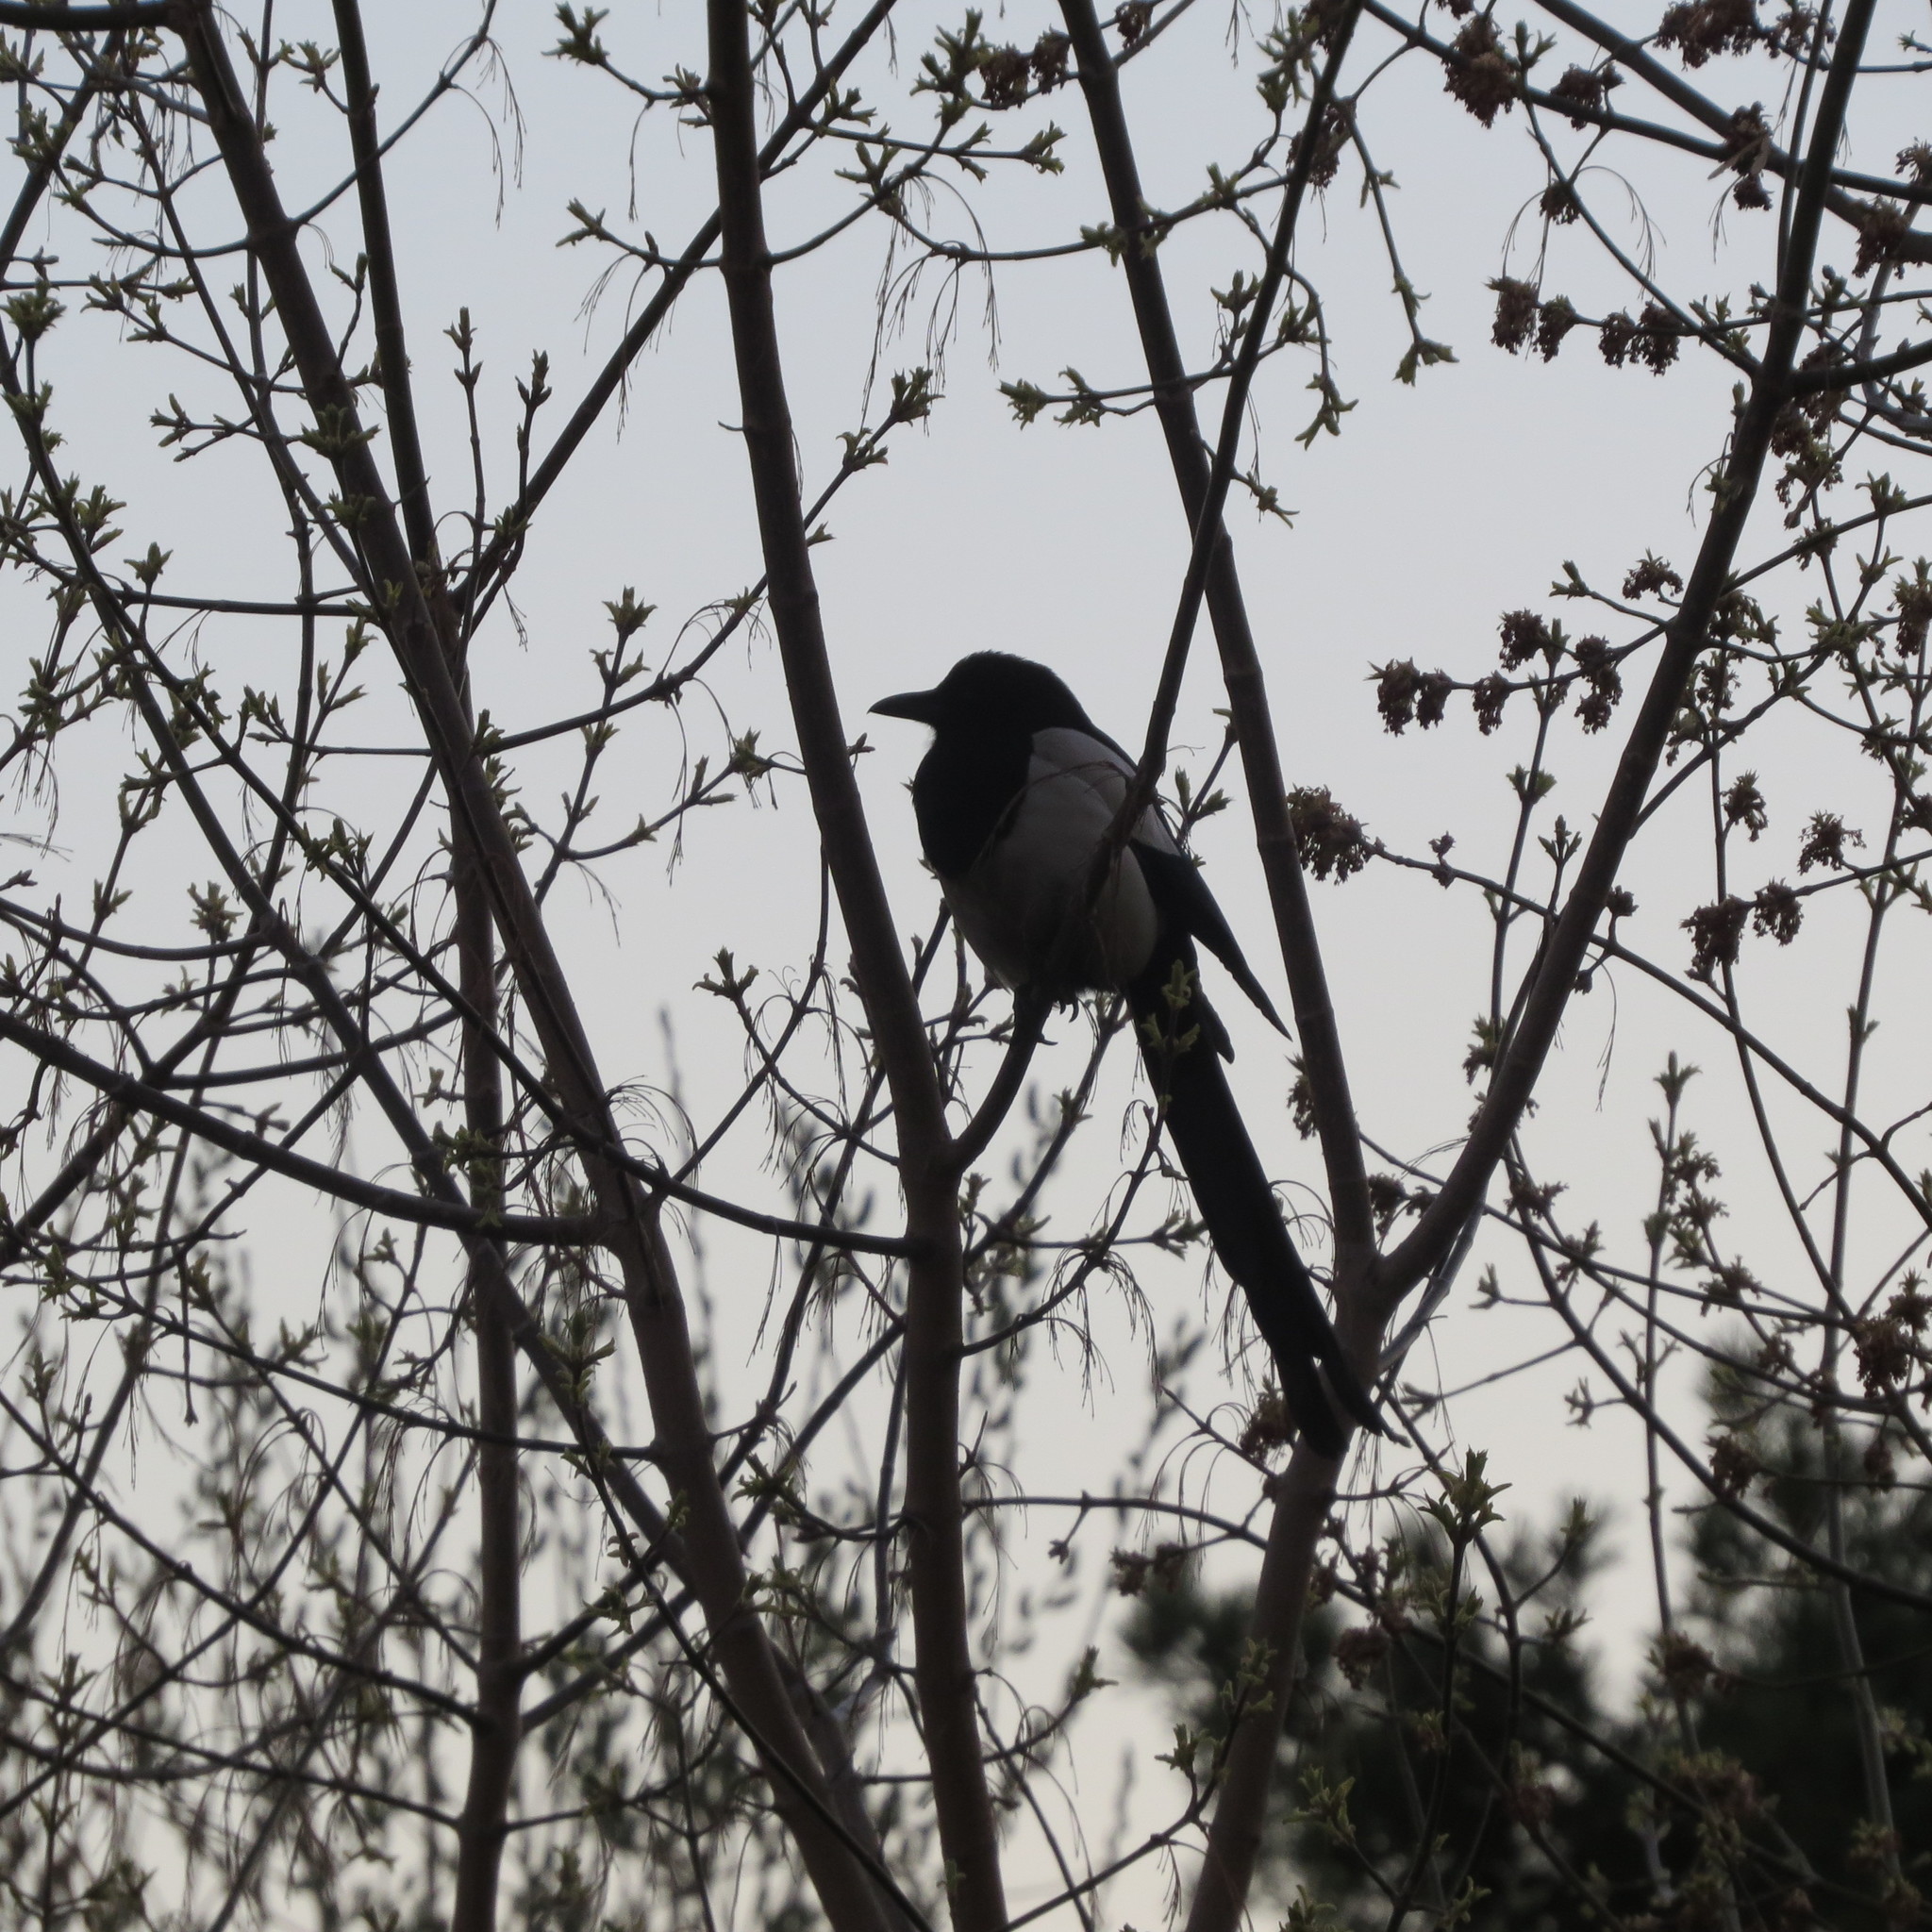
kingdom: Animalia
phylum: Chordata
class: Aves
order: Passeriformes
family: Corvidae
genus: Pica
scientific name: Pica pica
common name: Eurasian magpie
